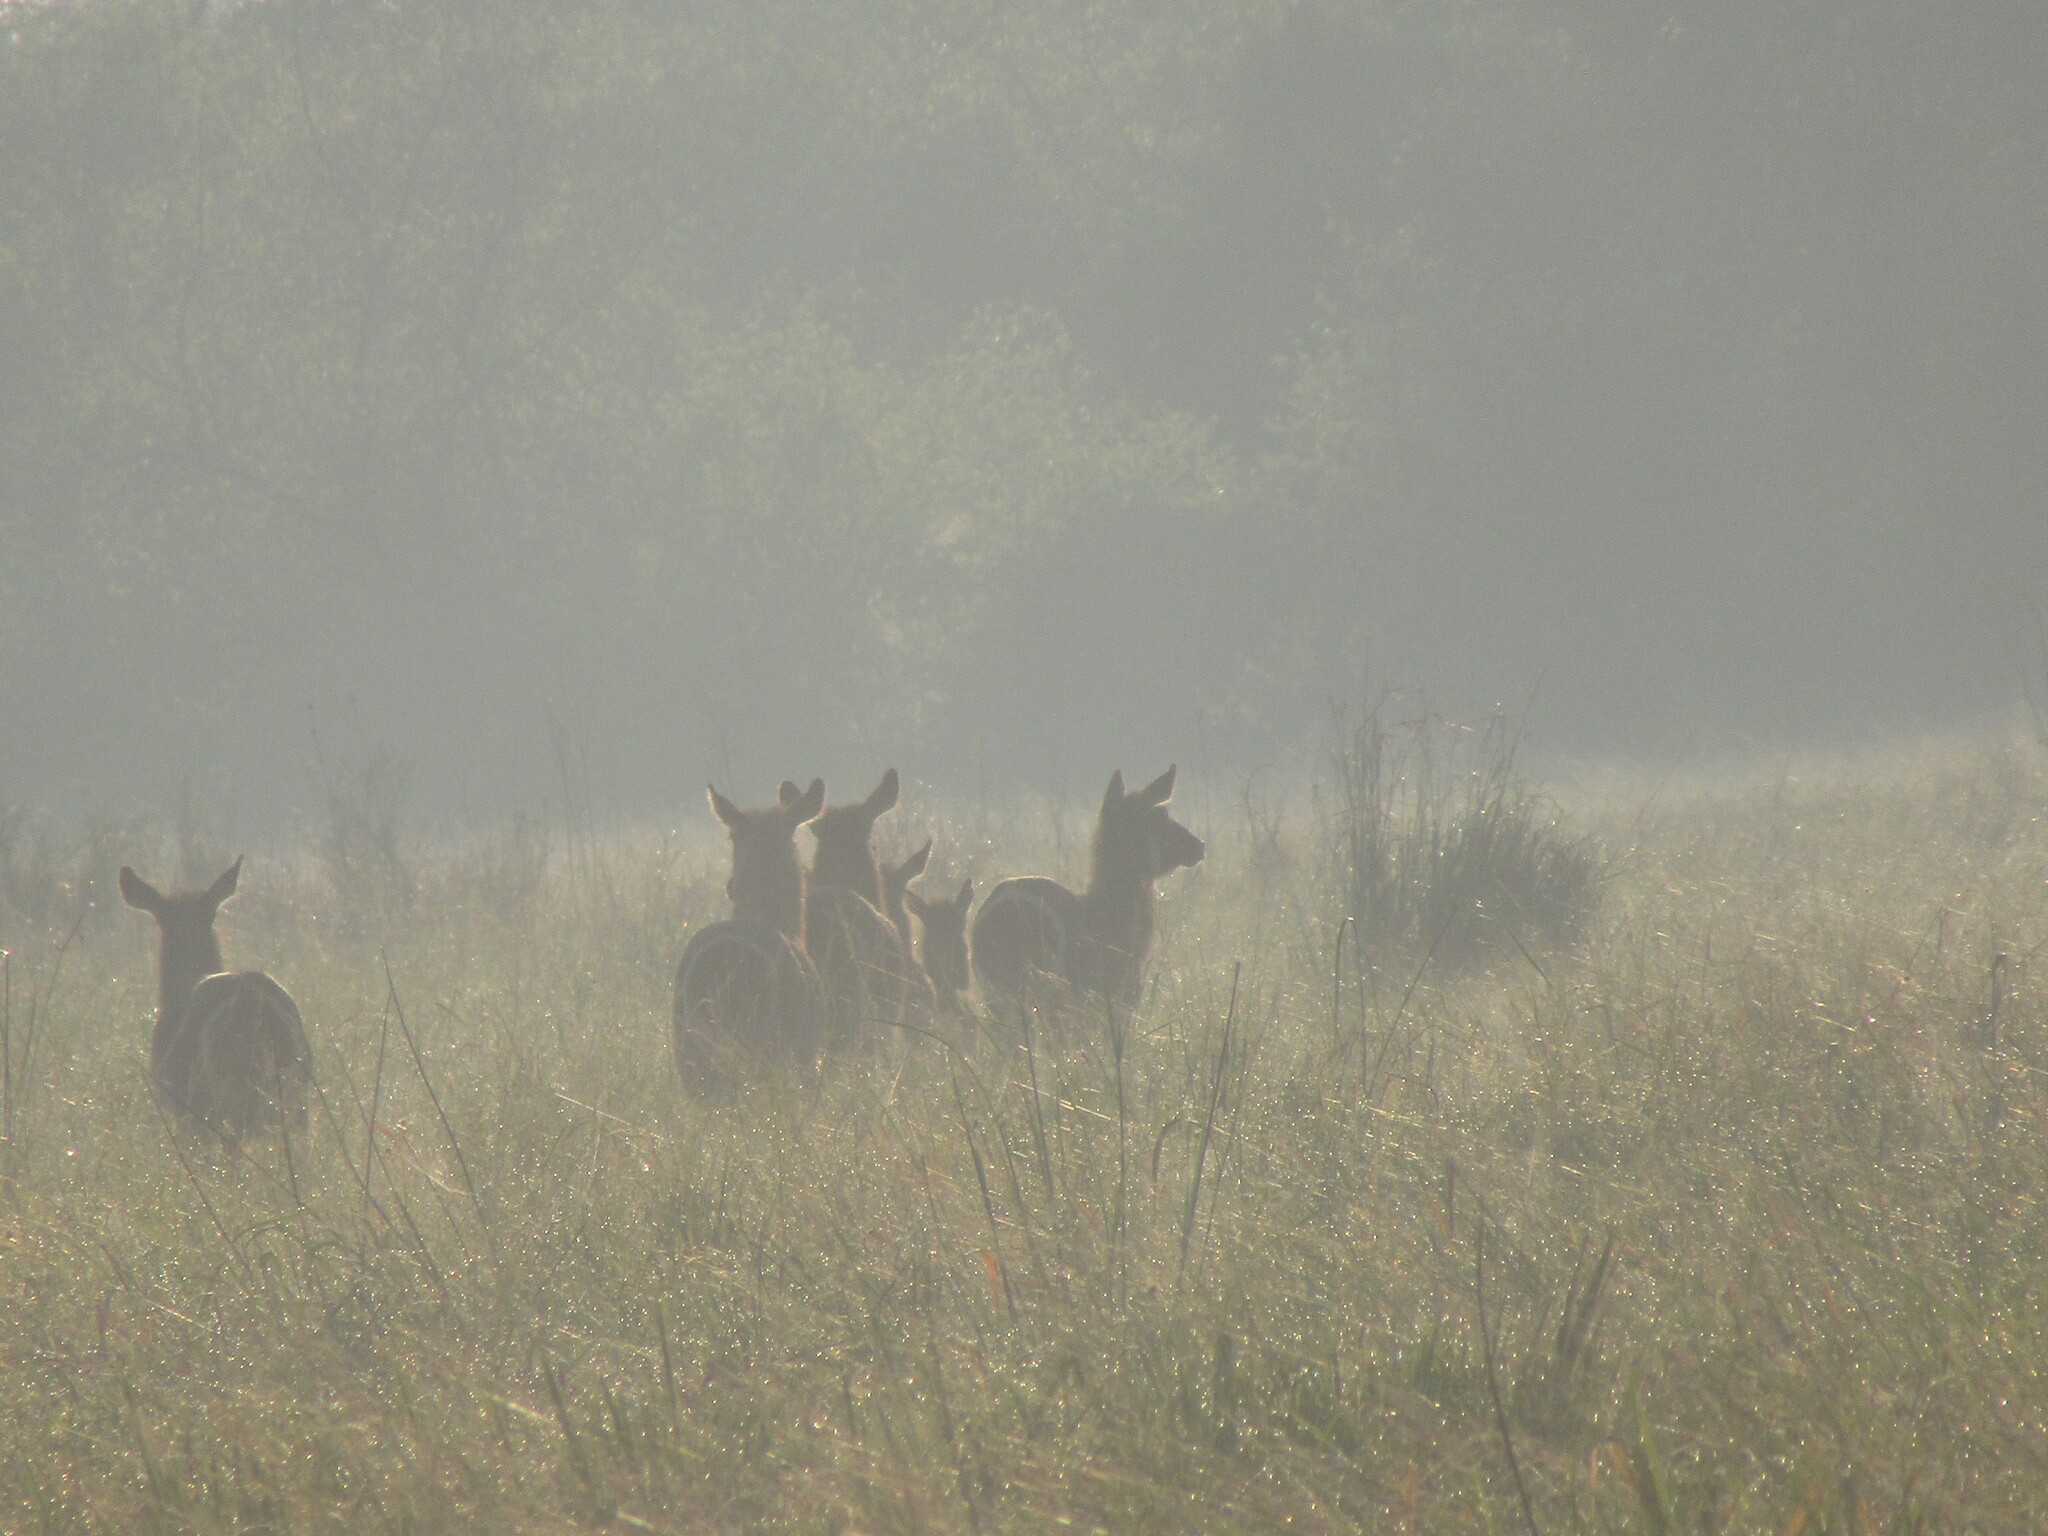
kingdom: Animalia
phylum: Chordata
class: Mammalia
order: Artiodactyla
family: Bovidae
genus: Kobus
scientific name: Kobus ellipsiprymnus
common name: Waterbuck
